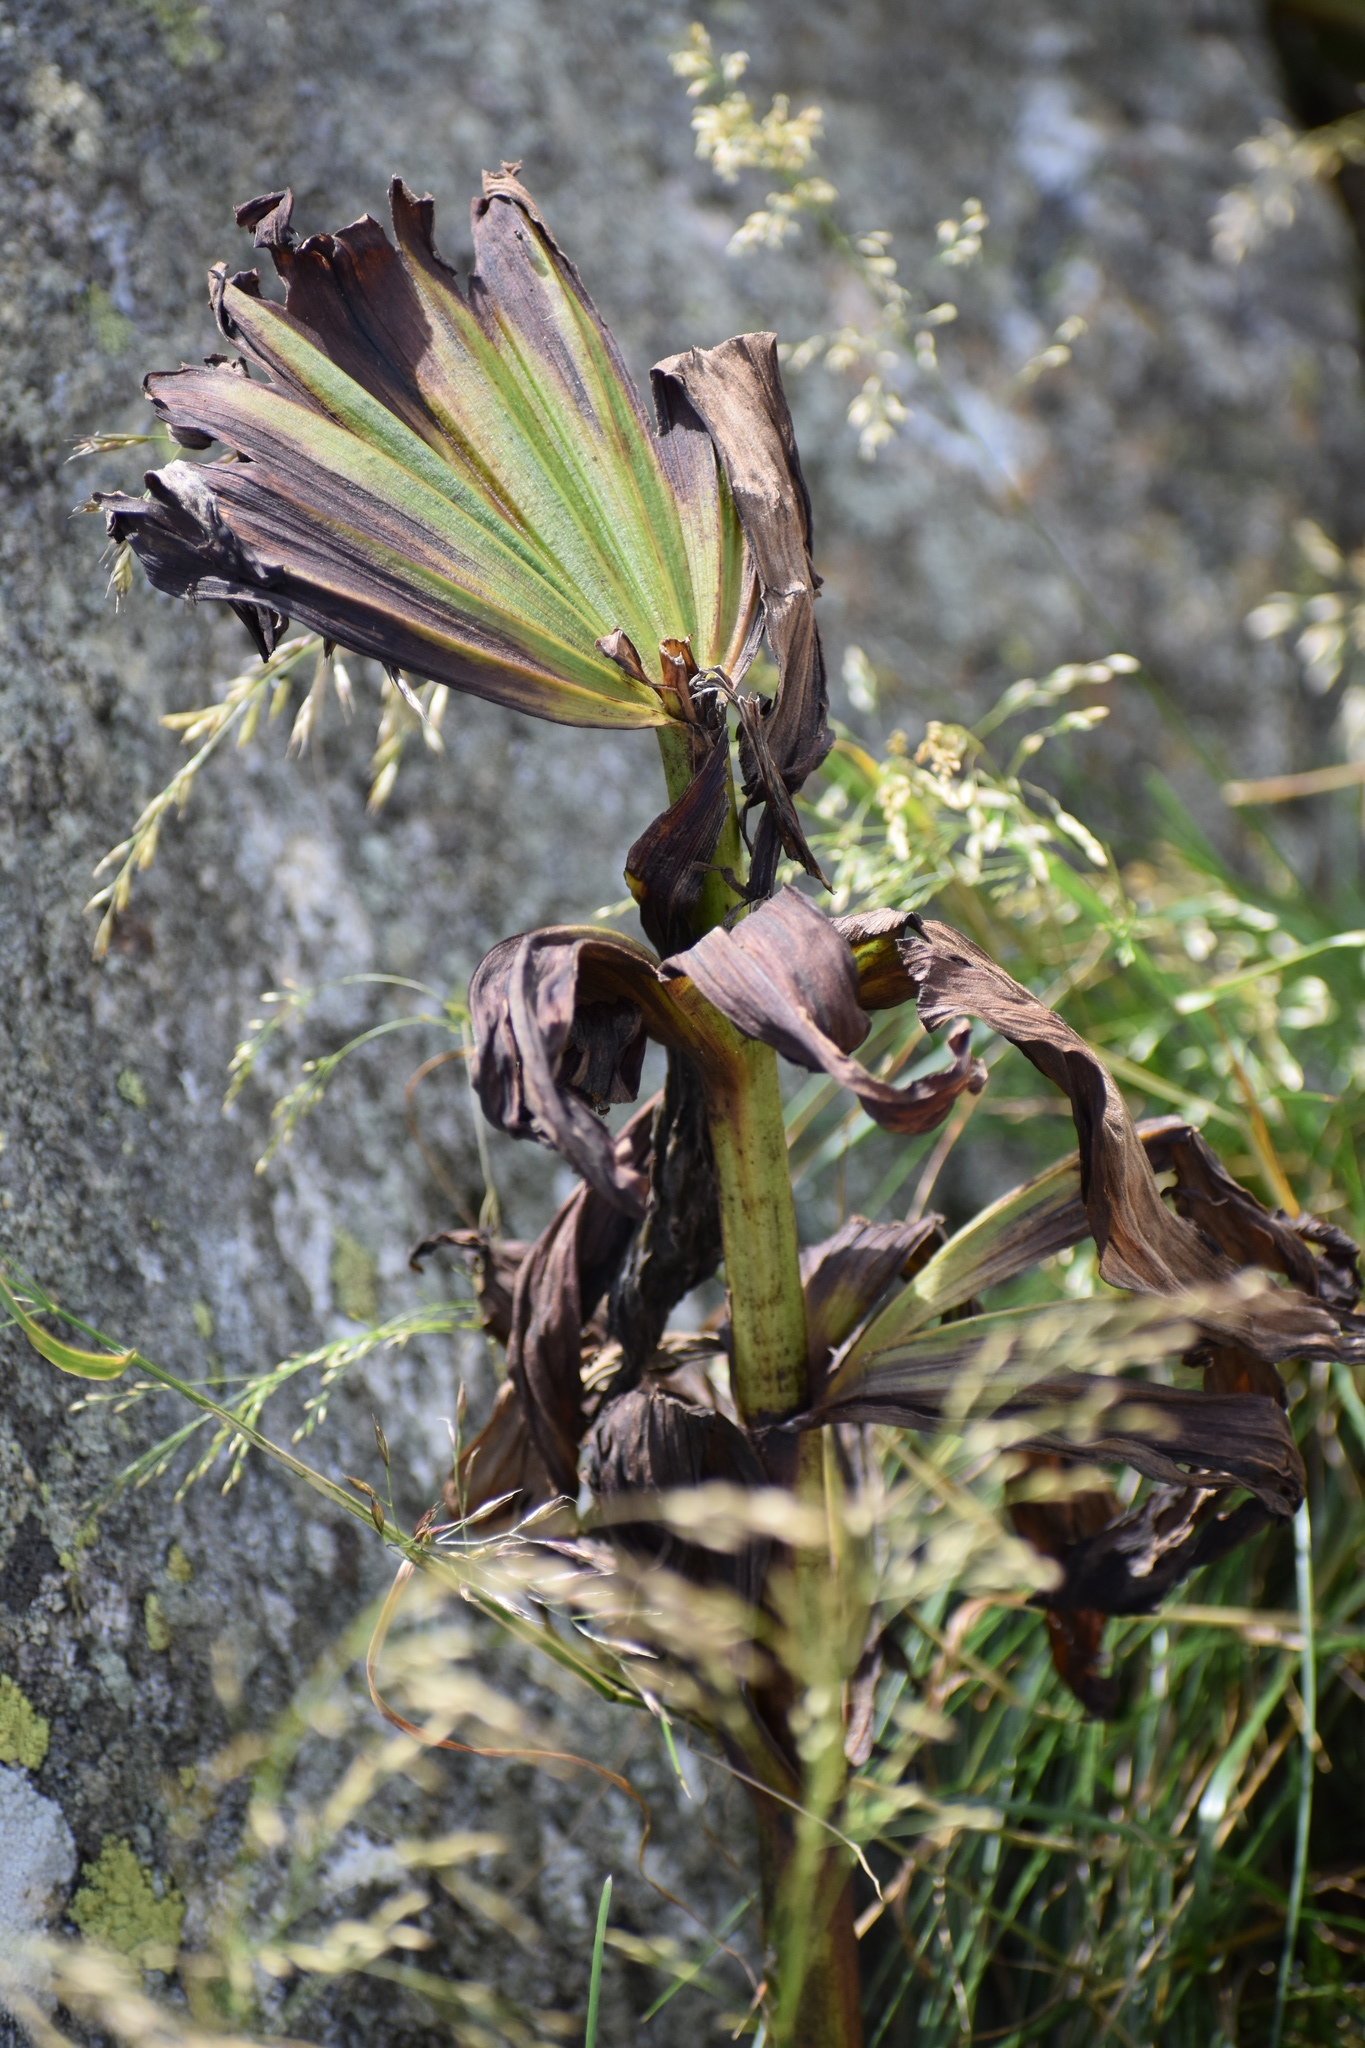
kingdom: Plantae
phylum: Tracheophyta
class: Liliopsida
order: Liliales
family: Melanthiaceae
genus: Veratrum
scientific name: Veratrum viride
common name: American false hellebore
